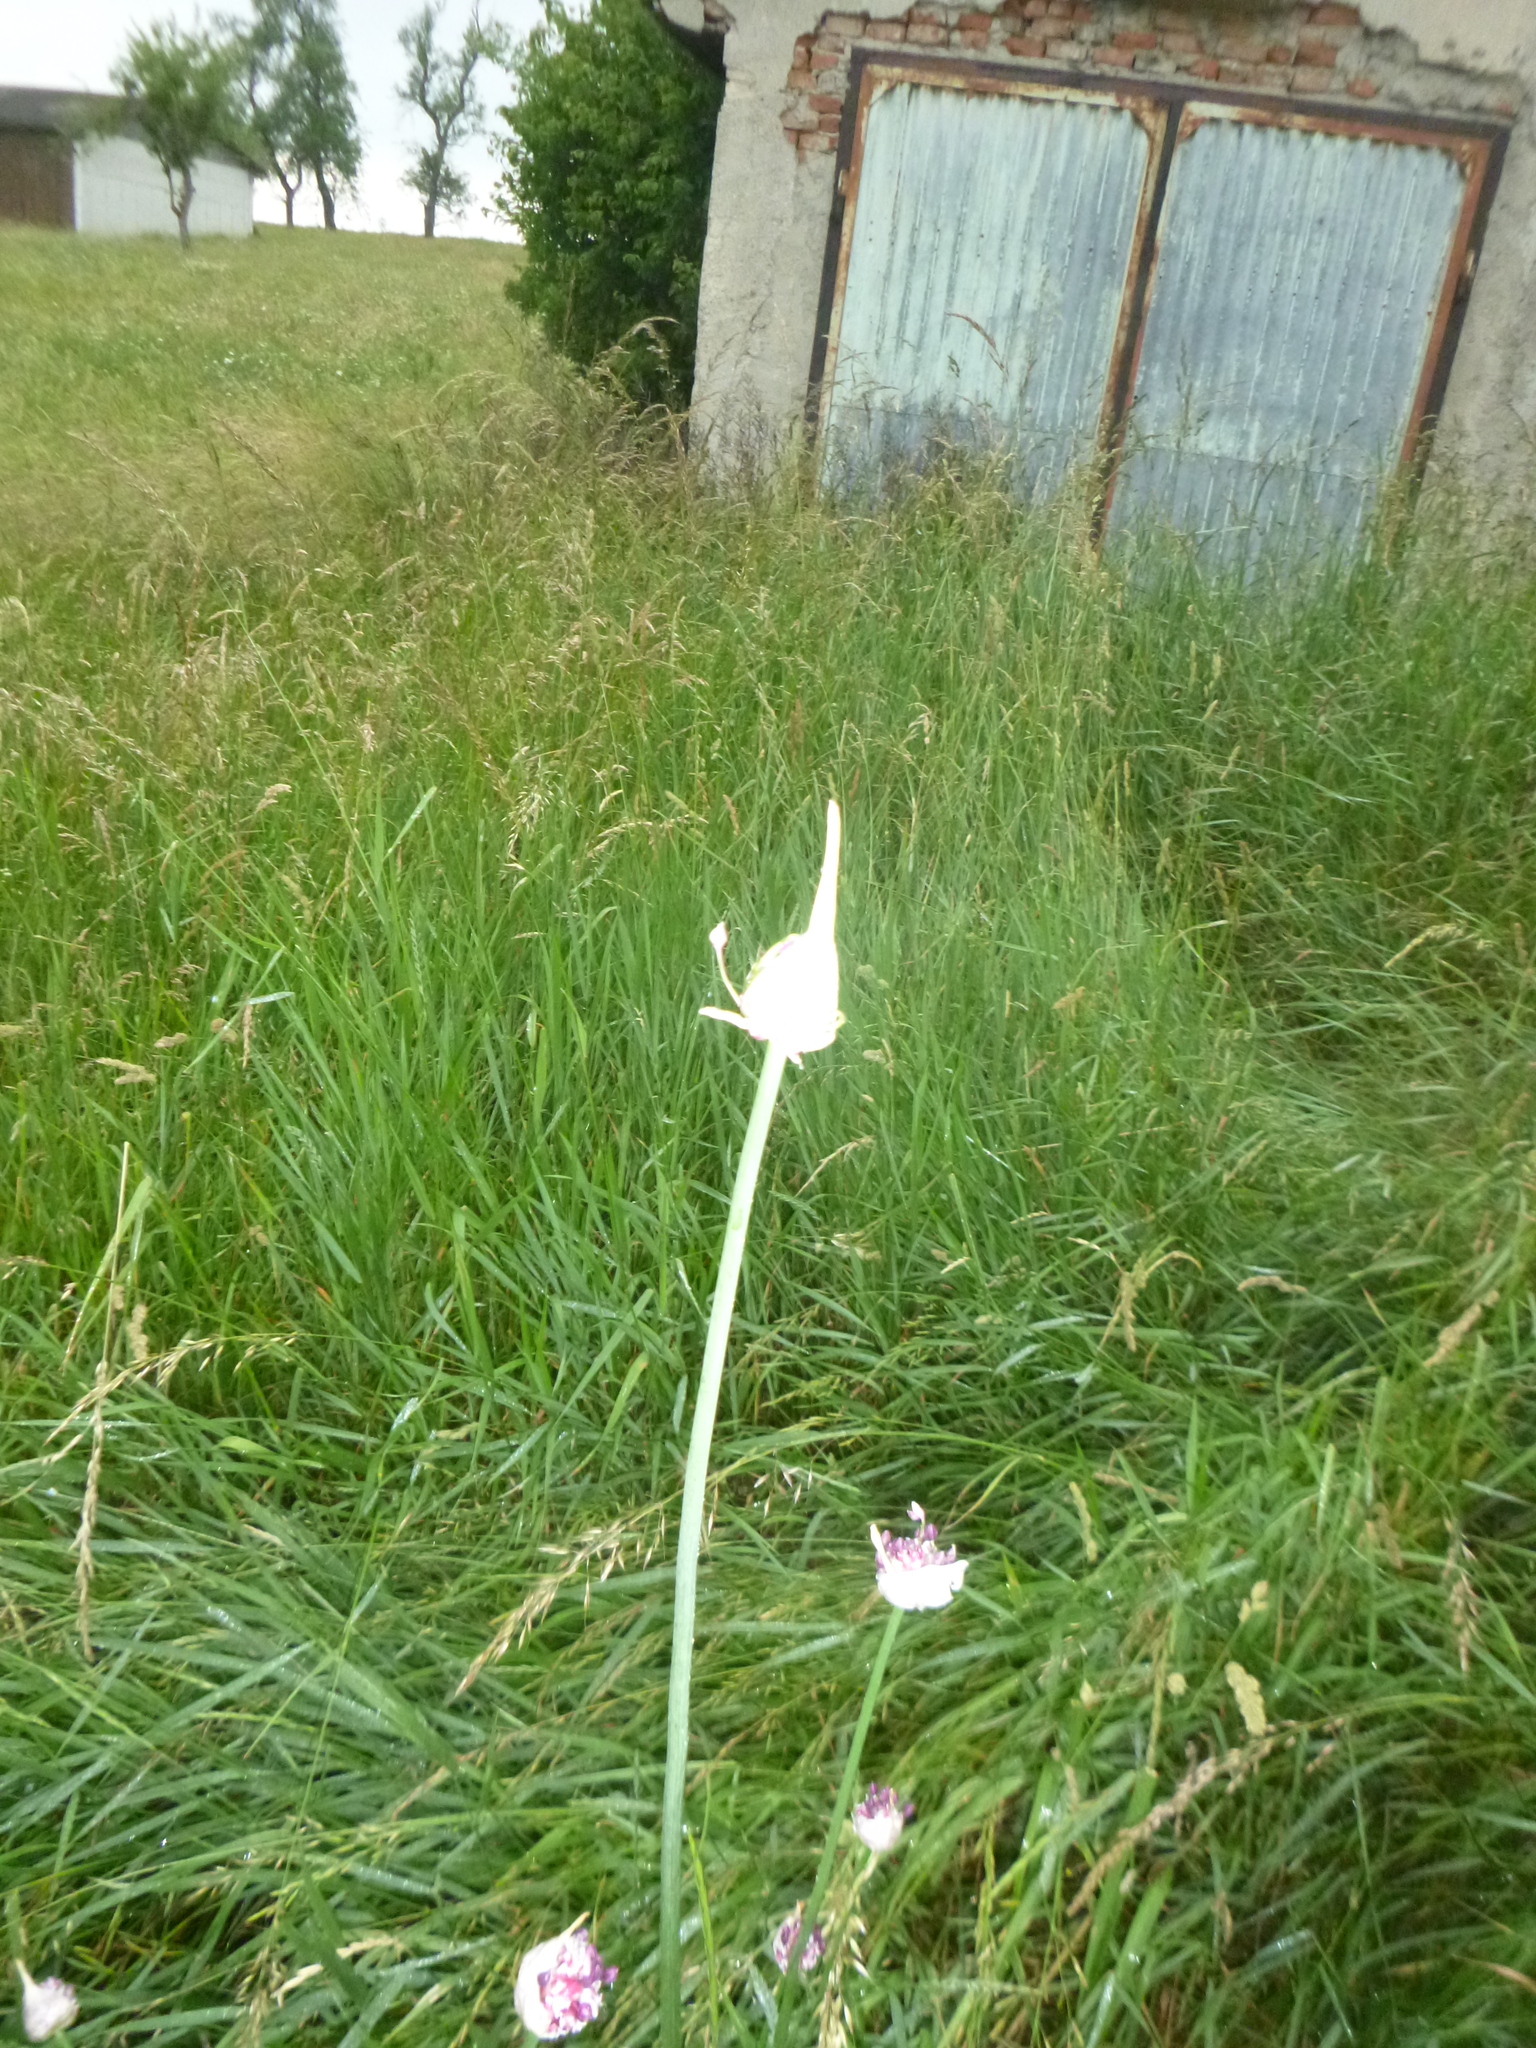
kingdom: Plantae
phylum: Tracheophyta
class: Liliopsida
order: Asparagales
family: Amaryllidaceae
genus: Allium
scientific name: Allium scorodoprasum
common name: Sand leek
